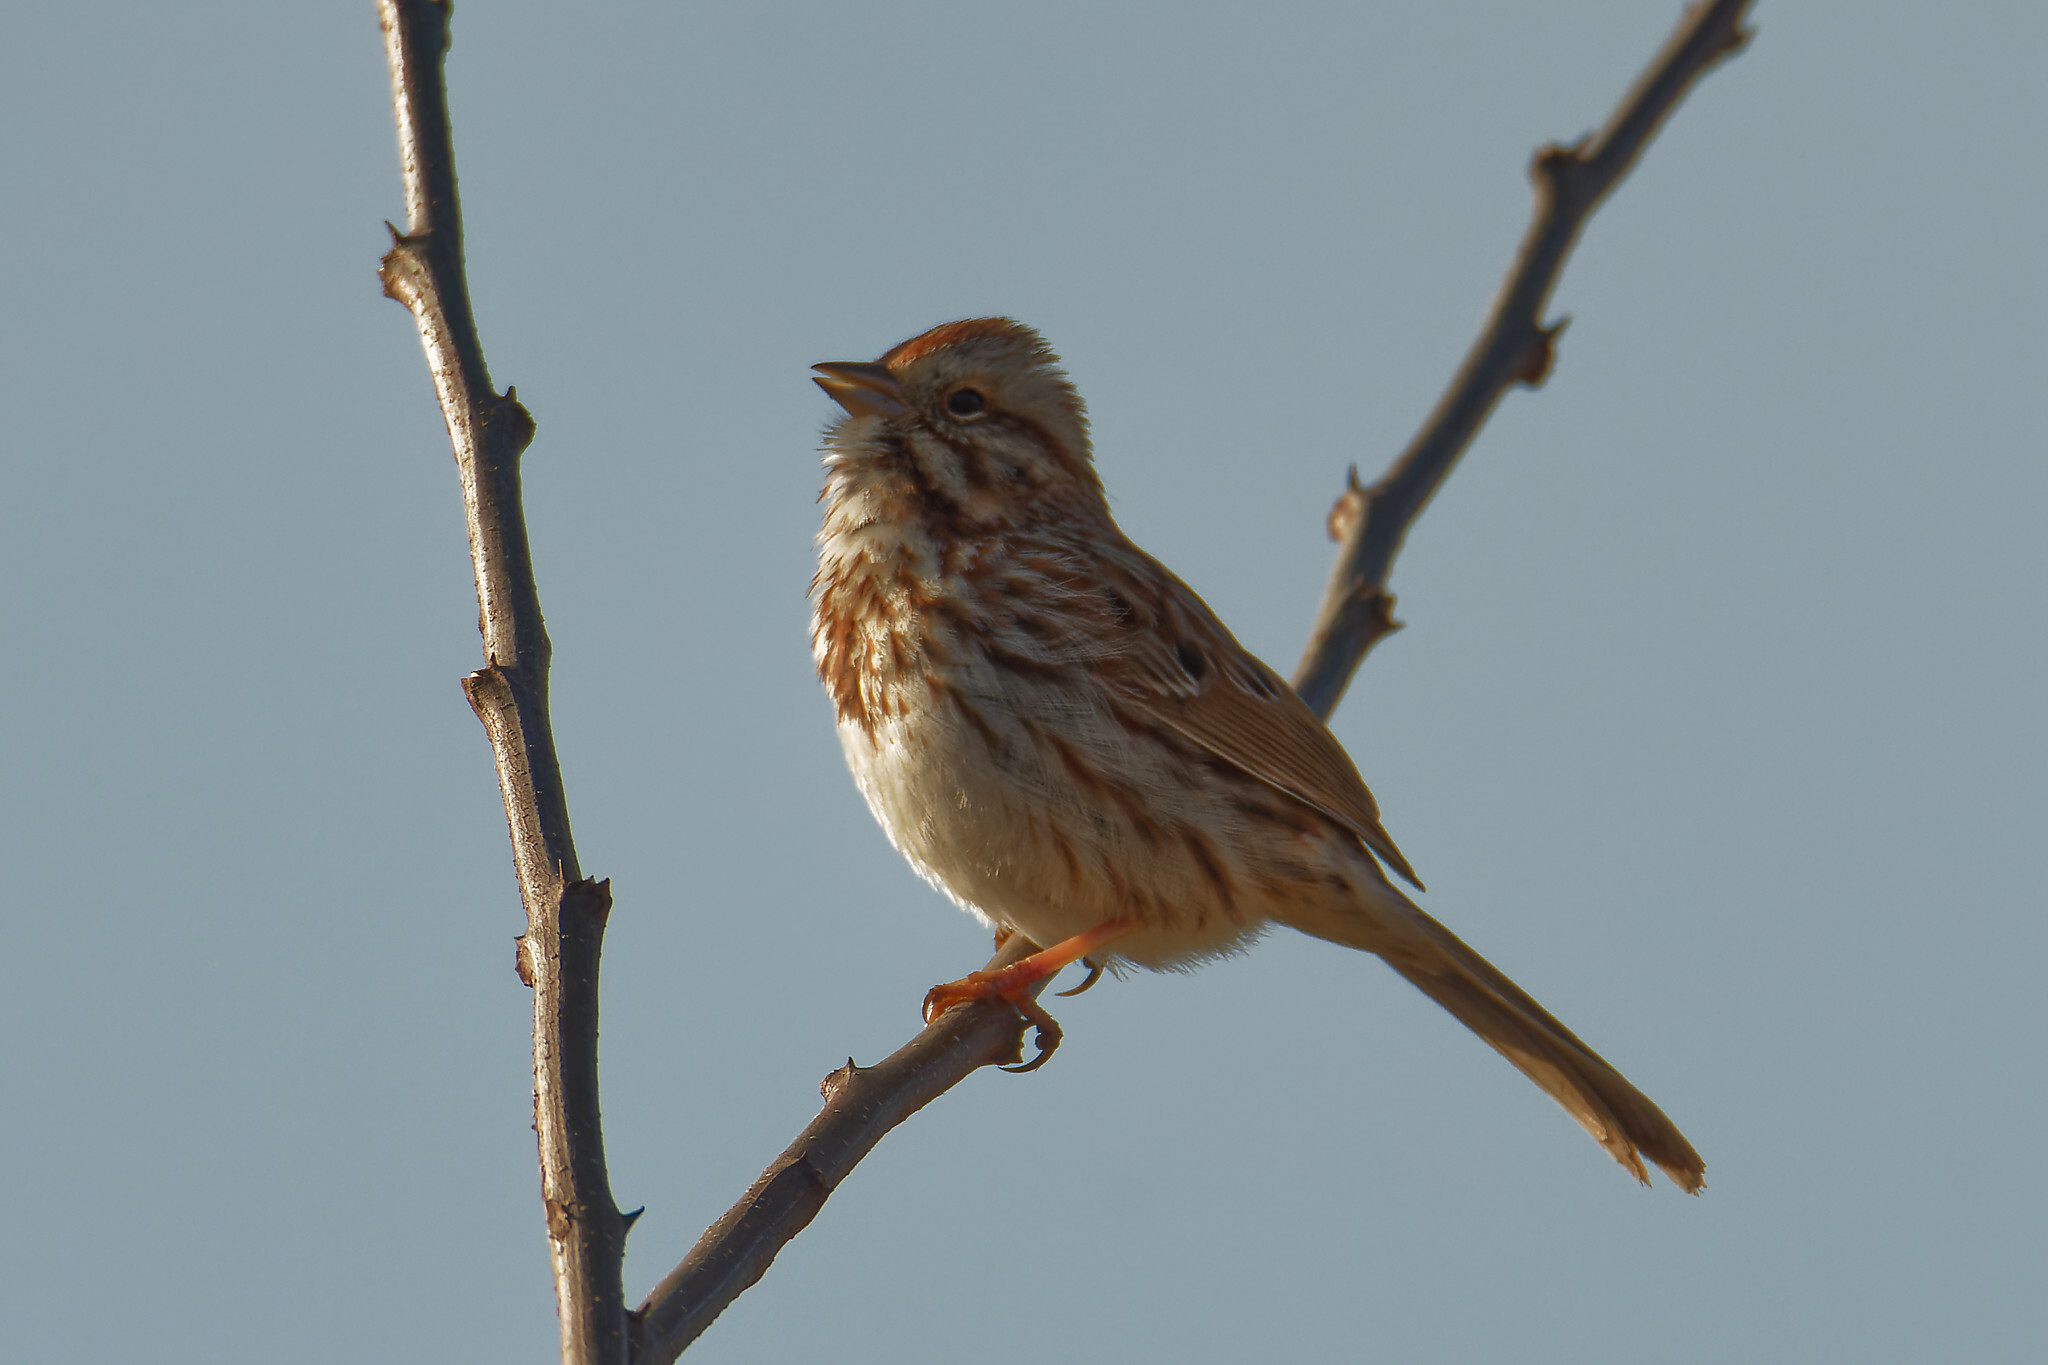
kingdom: Animalia
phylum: Chordata
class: Aves
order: Passeriformes
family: Passerellidae
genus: Melospiza
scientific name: Melospiza melodia
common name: Song sparrow
